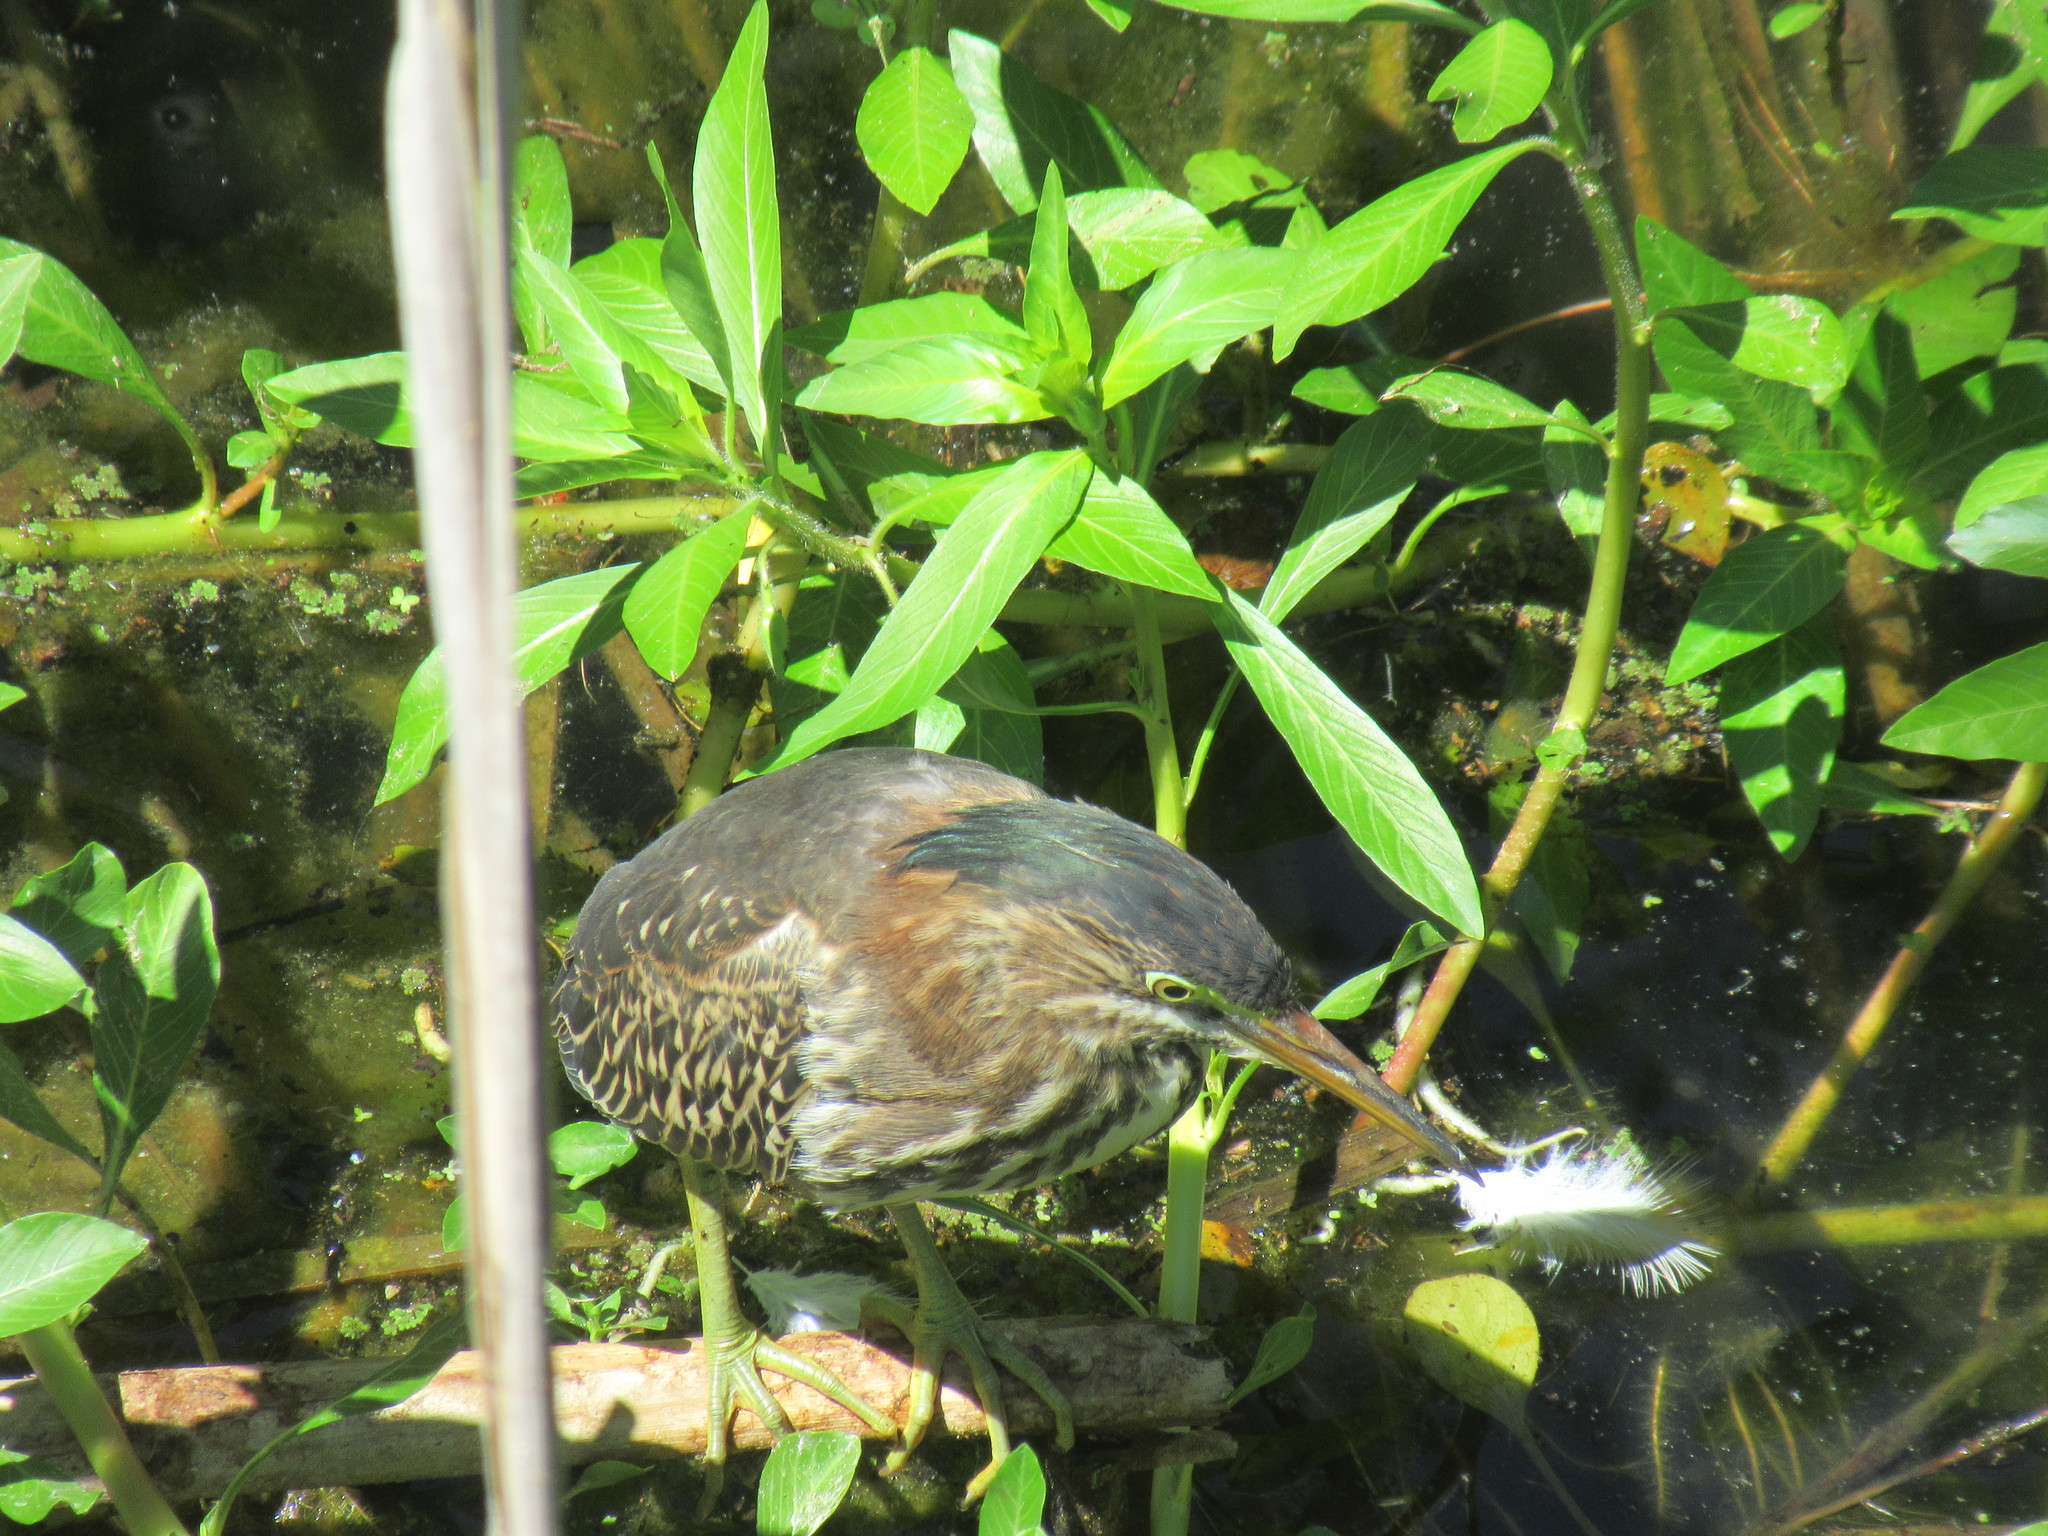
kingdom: Animalia
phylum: Chordata
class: Aves
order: Pelecaniformes
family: Ardeidae
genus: Butorides
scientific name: Butorides virescens
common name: Green heron
